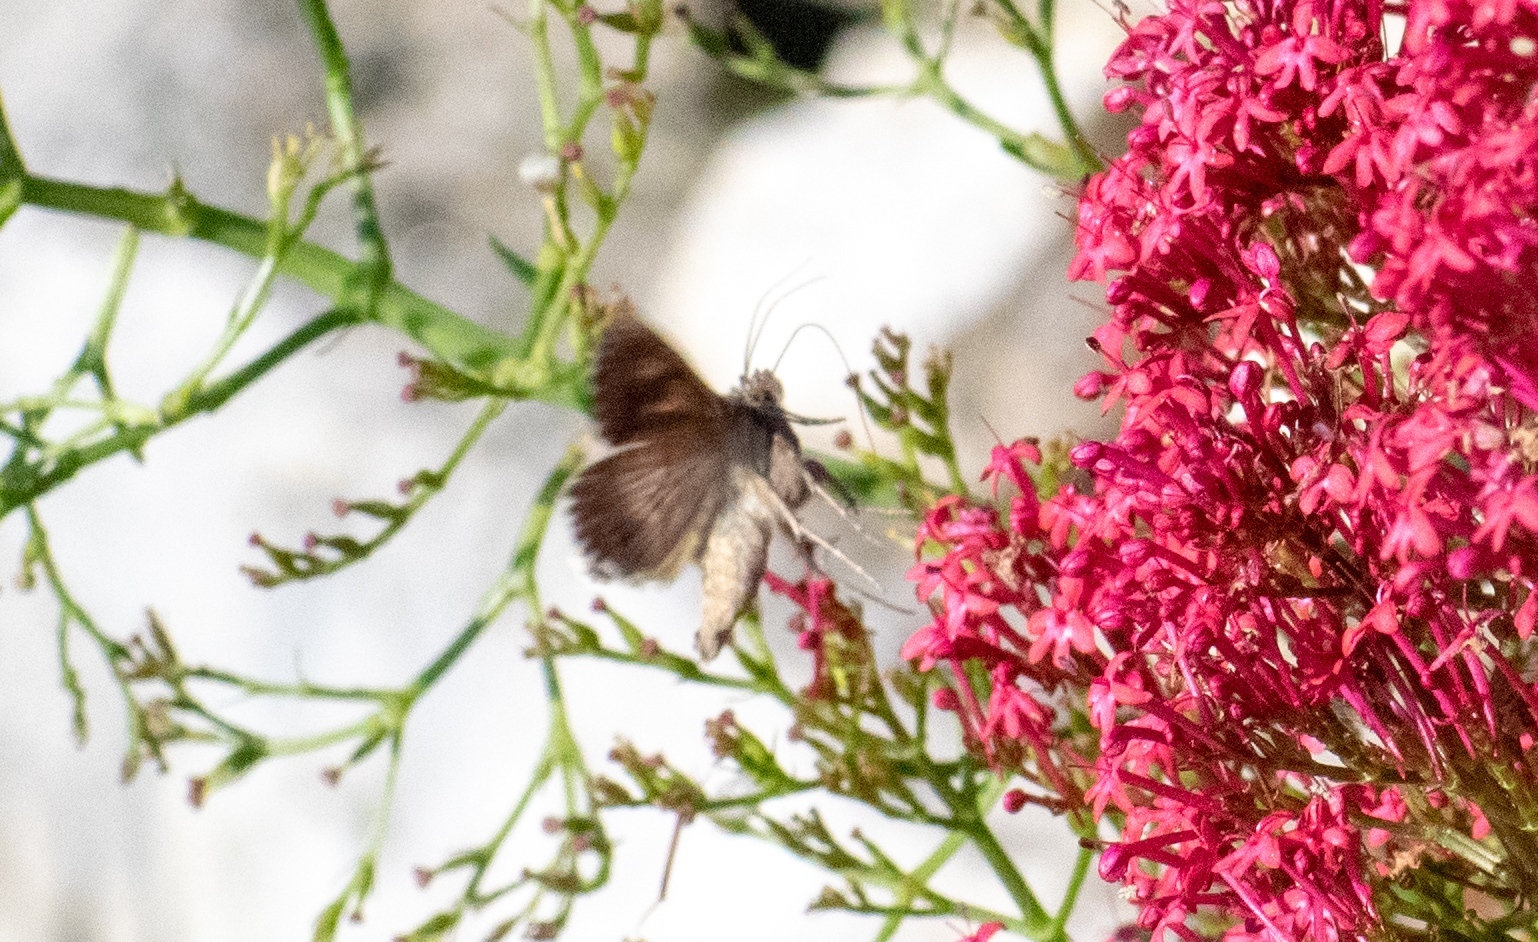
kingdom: Animalia
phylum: Arthropoda
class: Insecta
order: Lepidoptera
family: Noctuidae
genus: Autographa
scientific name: Autographa gamma
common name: Silver y
